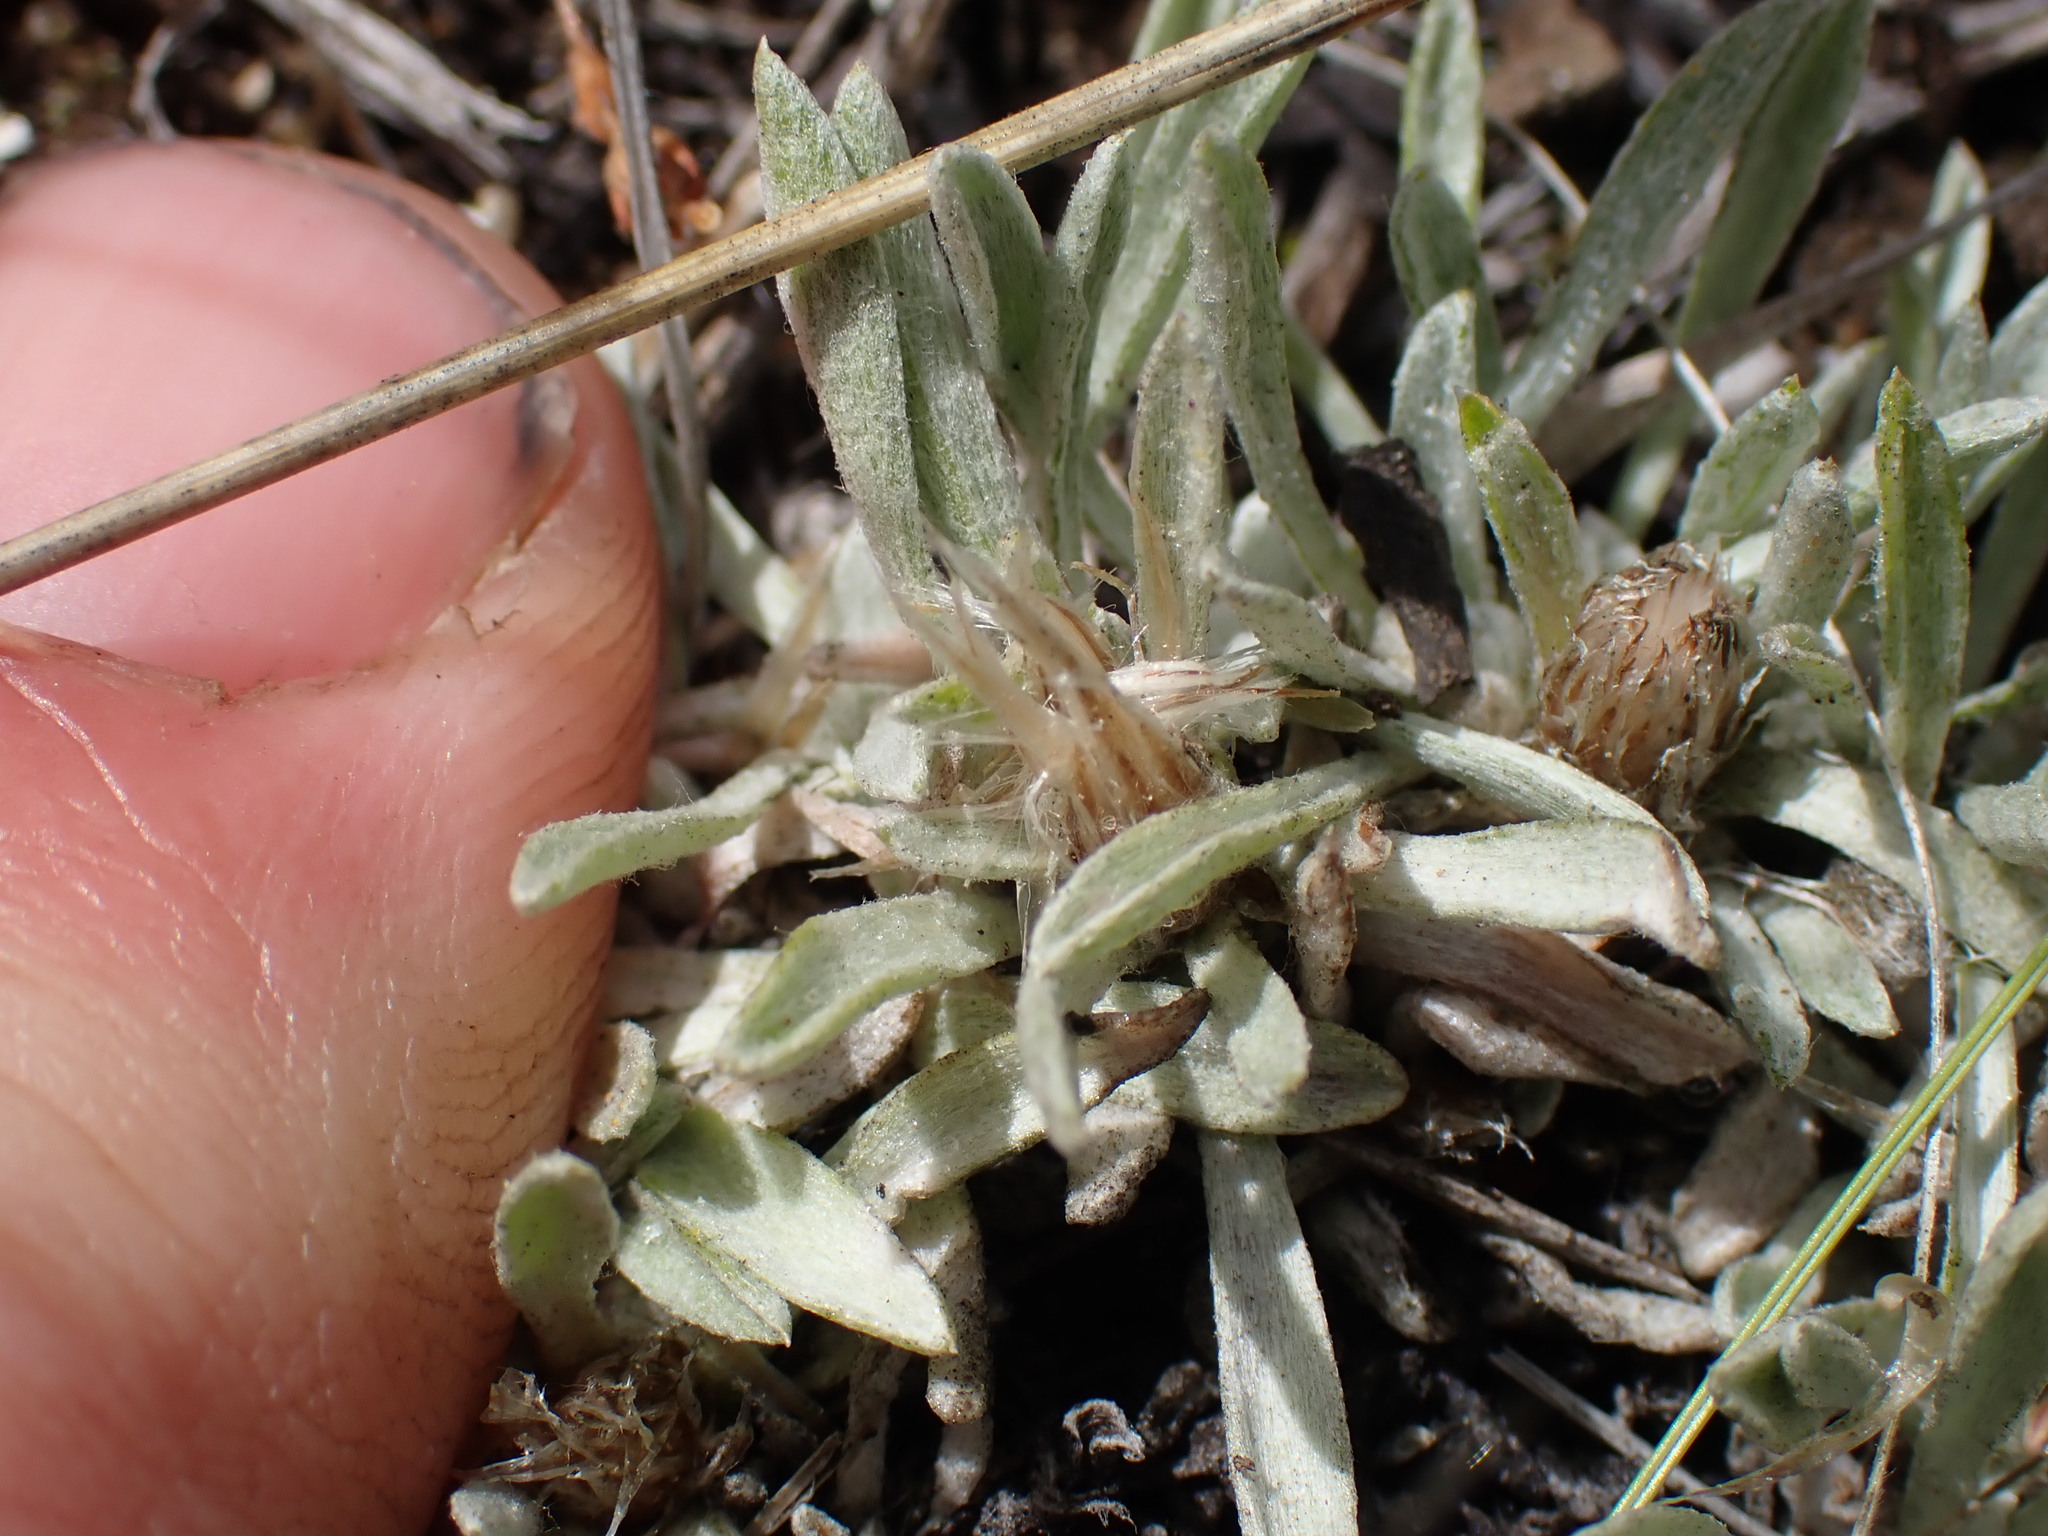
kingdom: Plantae
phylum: Tracheophyta
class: Magnoliopsida
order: Asterales
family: Asteraceae
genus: Antennaria
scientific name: Antennaria dimorpha
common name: Cushion pussytoes
